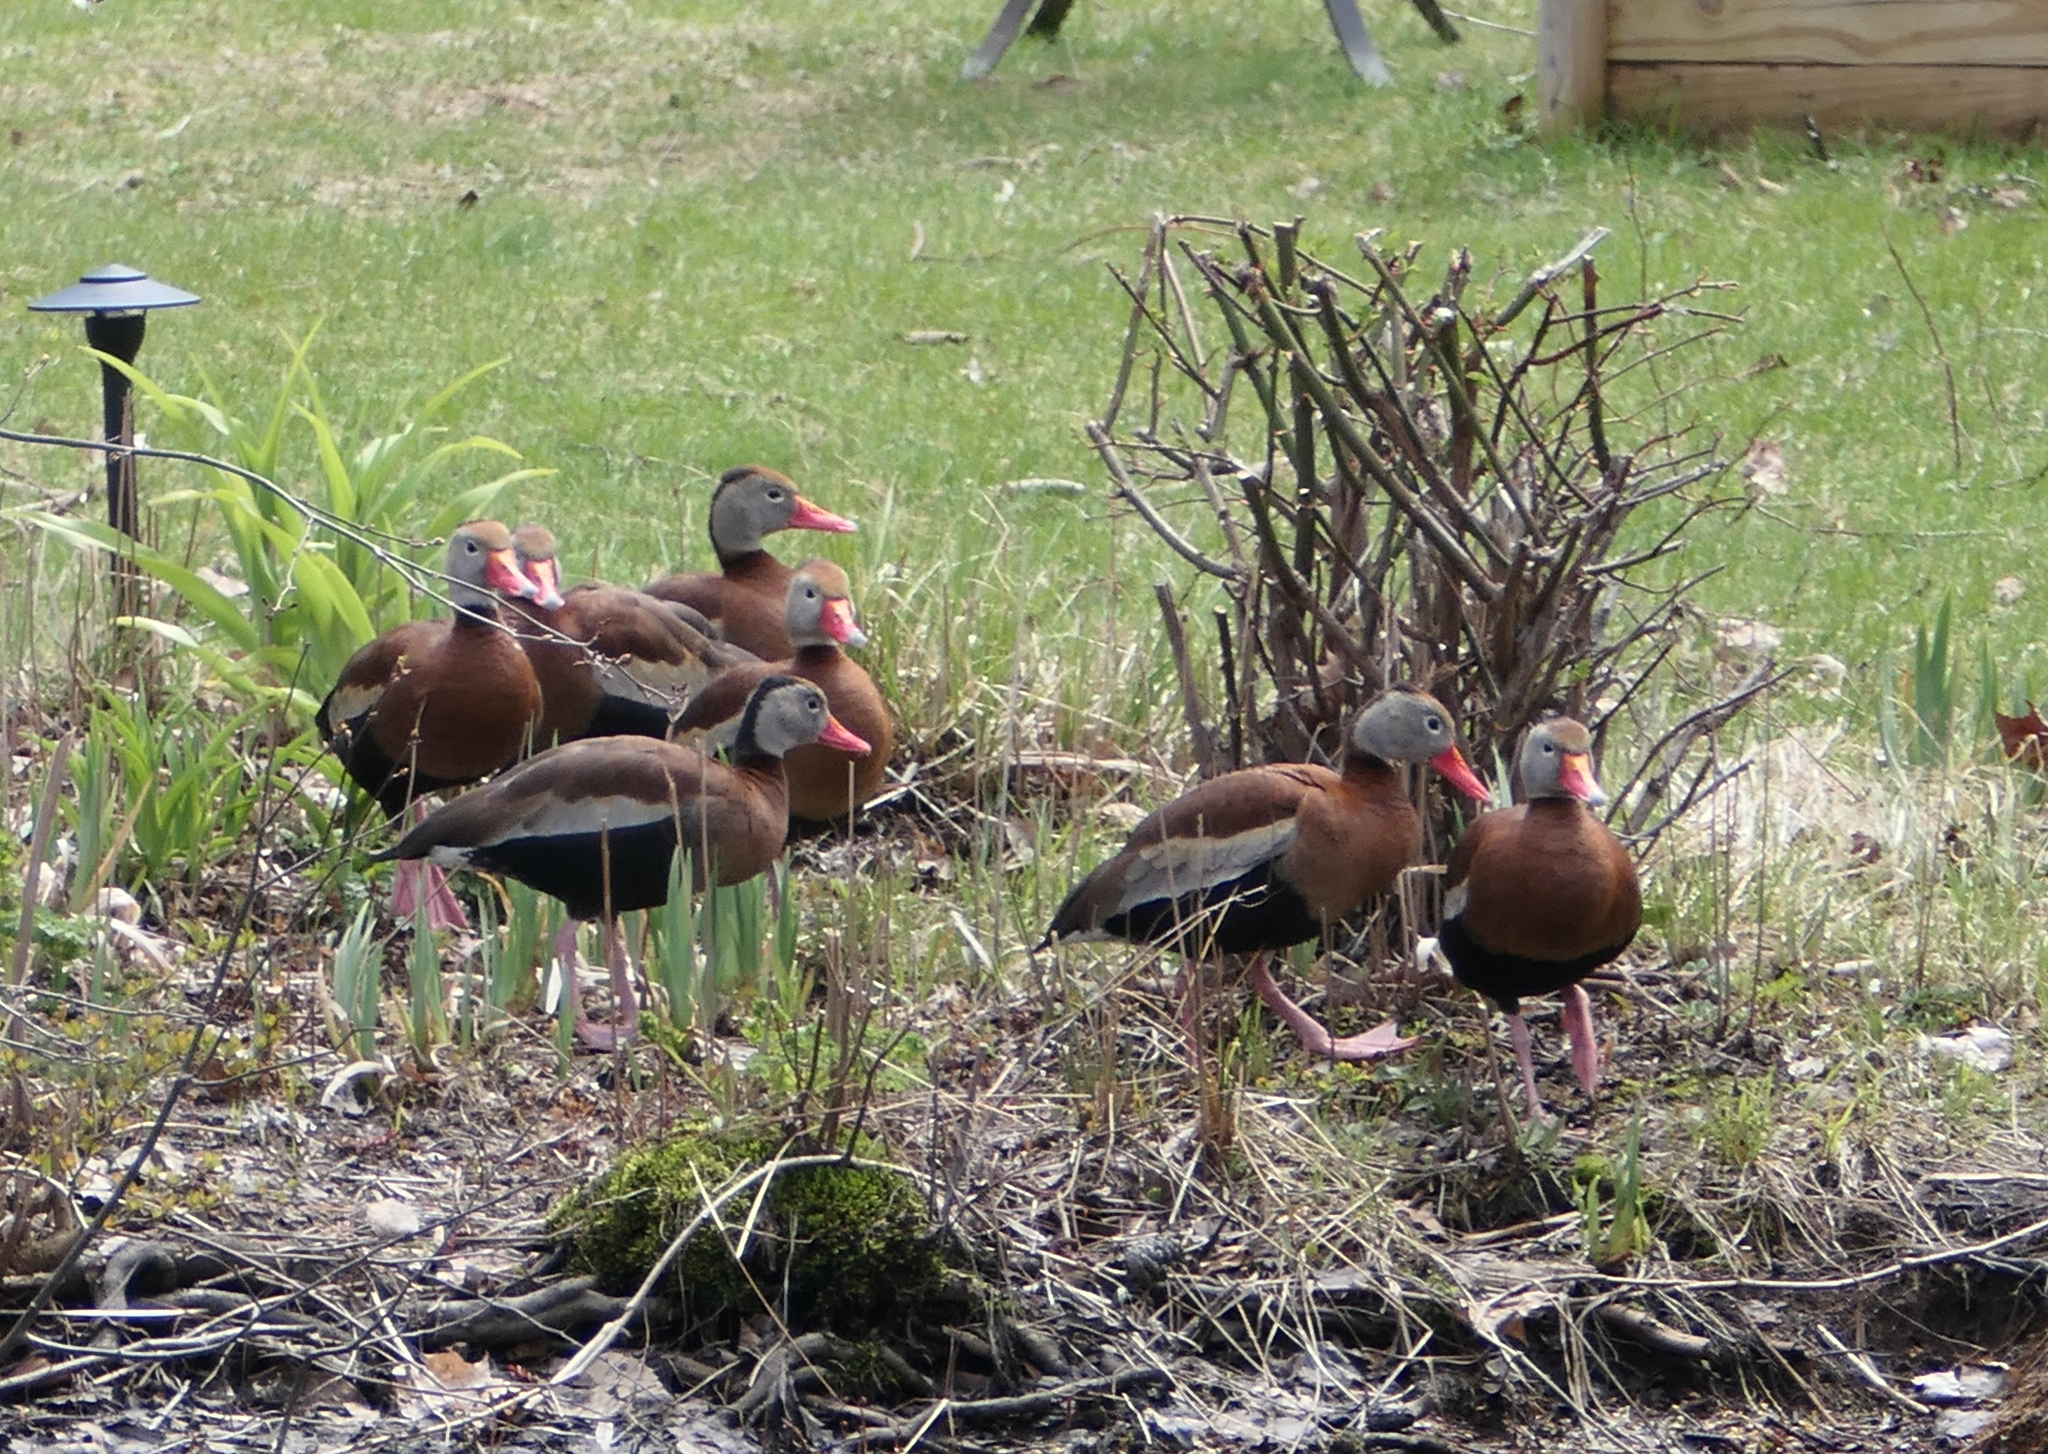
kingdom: Animalia
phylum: Chordata
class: Aves
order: Anseriformes
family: Anatidae
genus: Dendrocygna
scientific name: Dendrocygna autumnalis
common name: Black-bellied whistling duck
